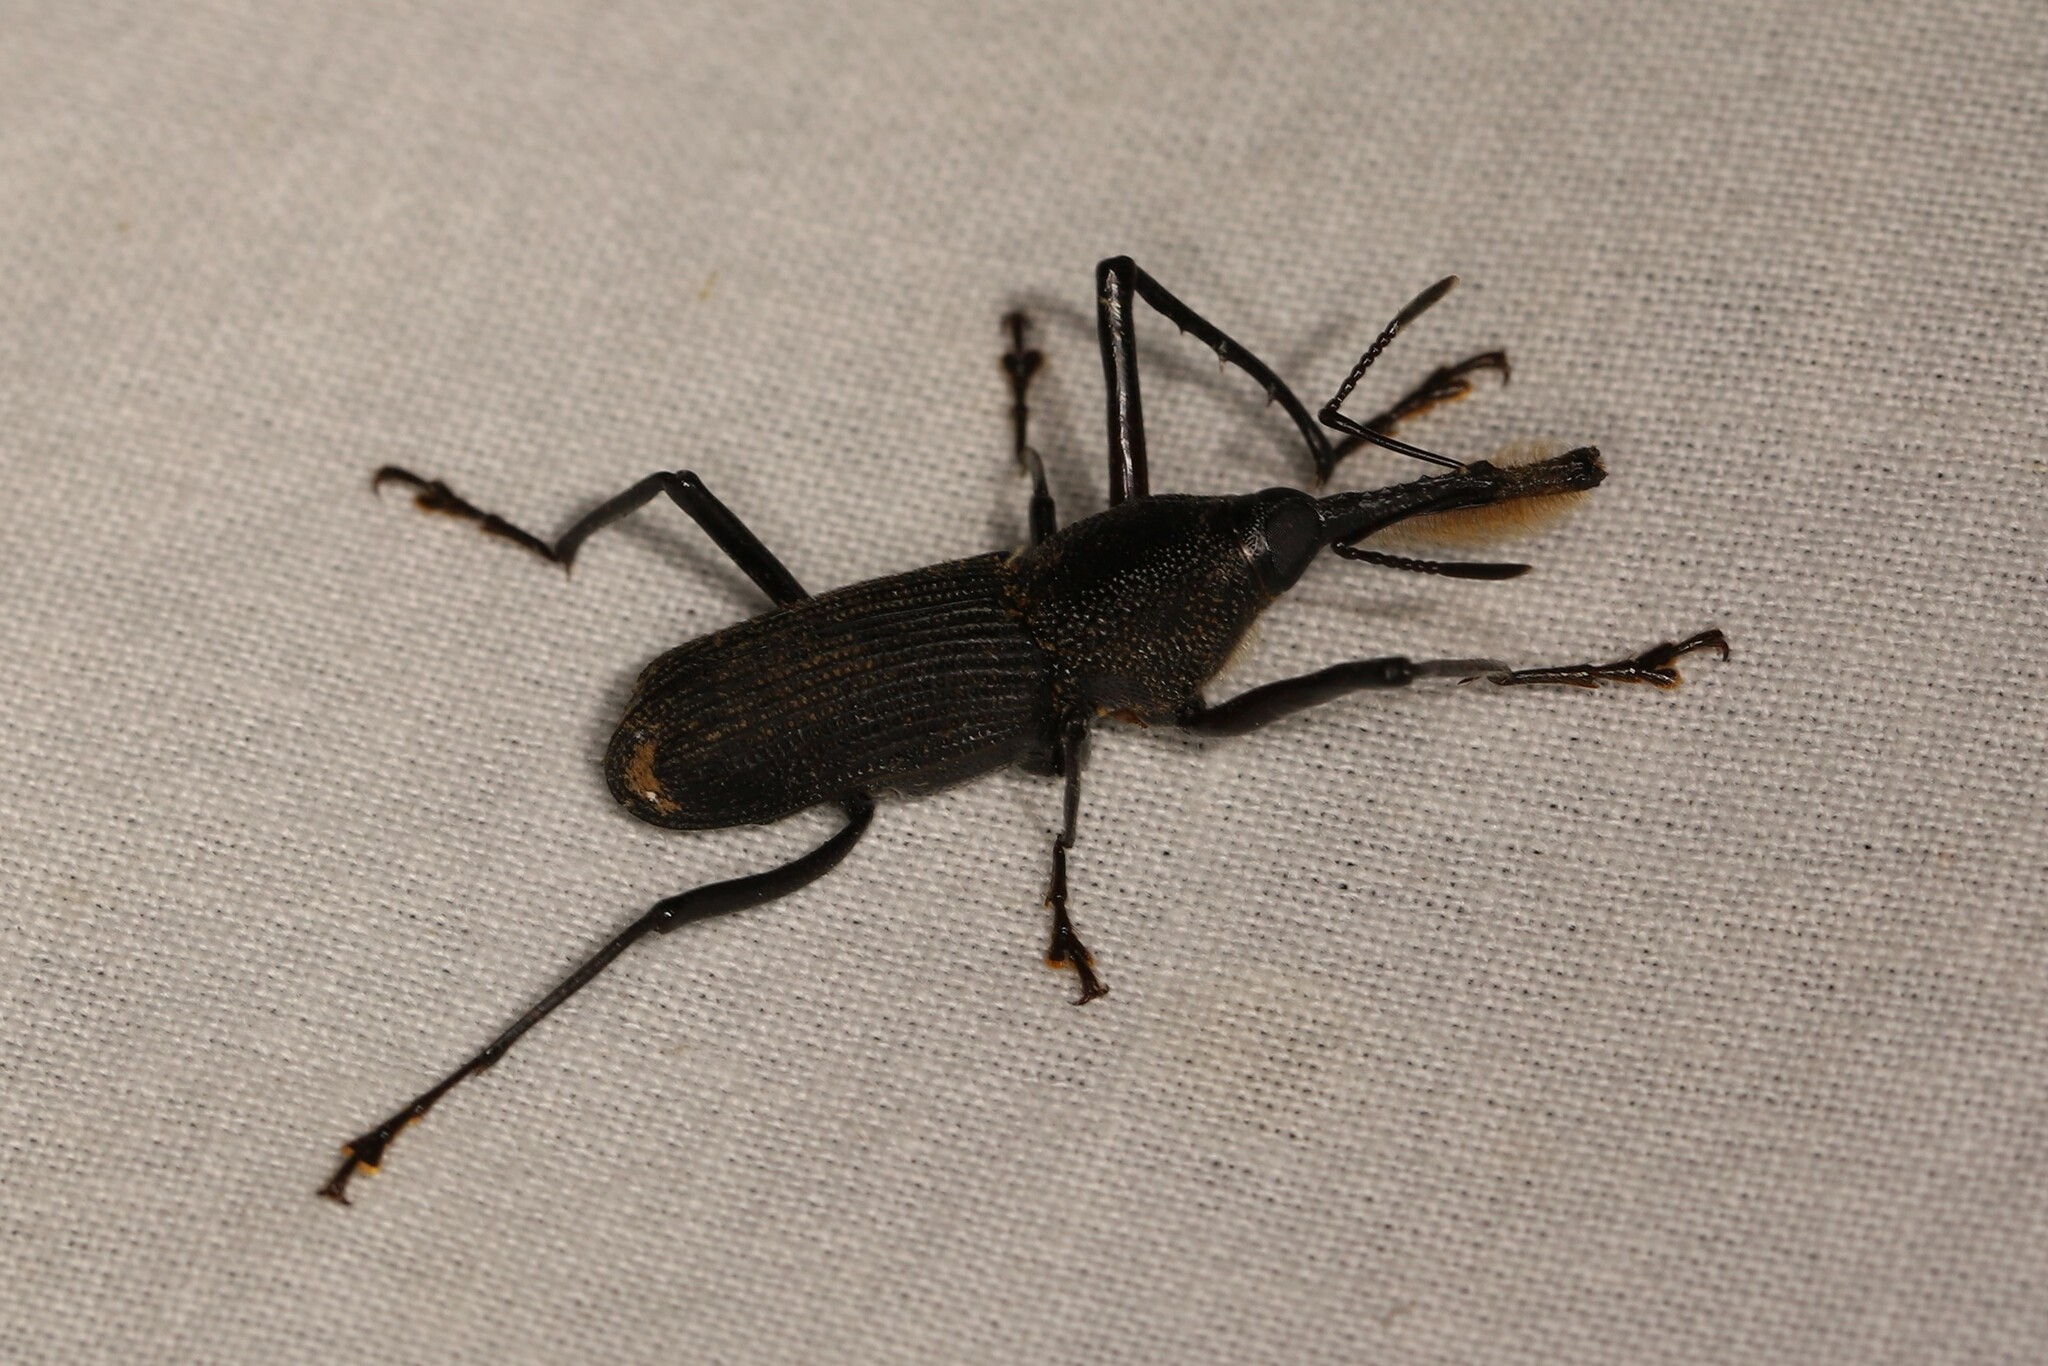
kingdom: Animalia
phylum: Arthropoda
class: Insecta
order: Coleoptera
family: Dryophthoridae
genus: Rhinostomus
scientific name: Rhinostomus barbirostris
